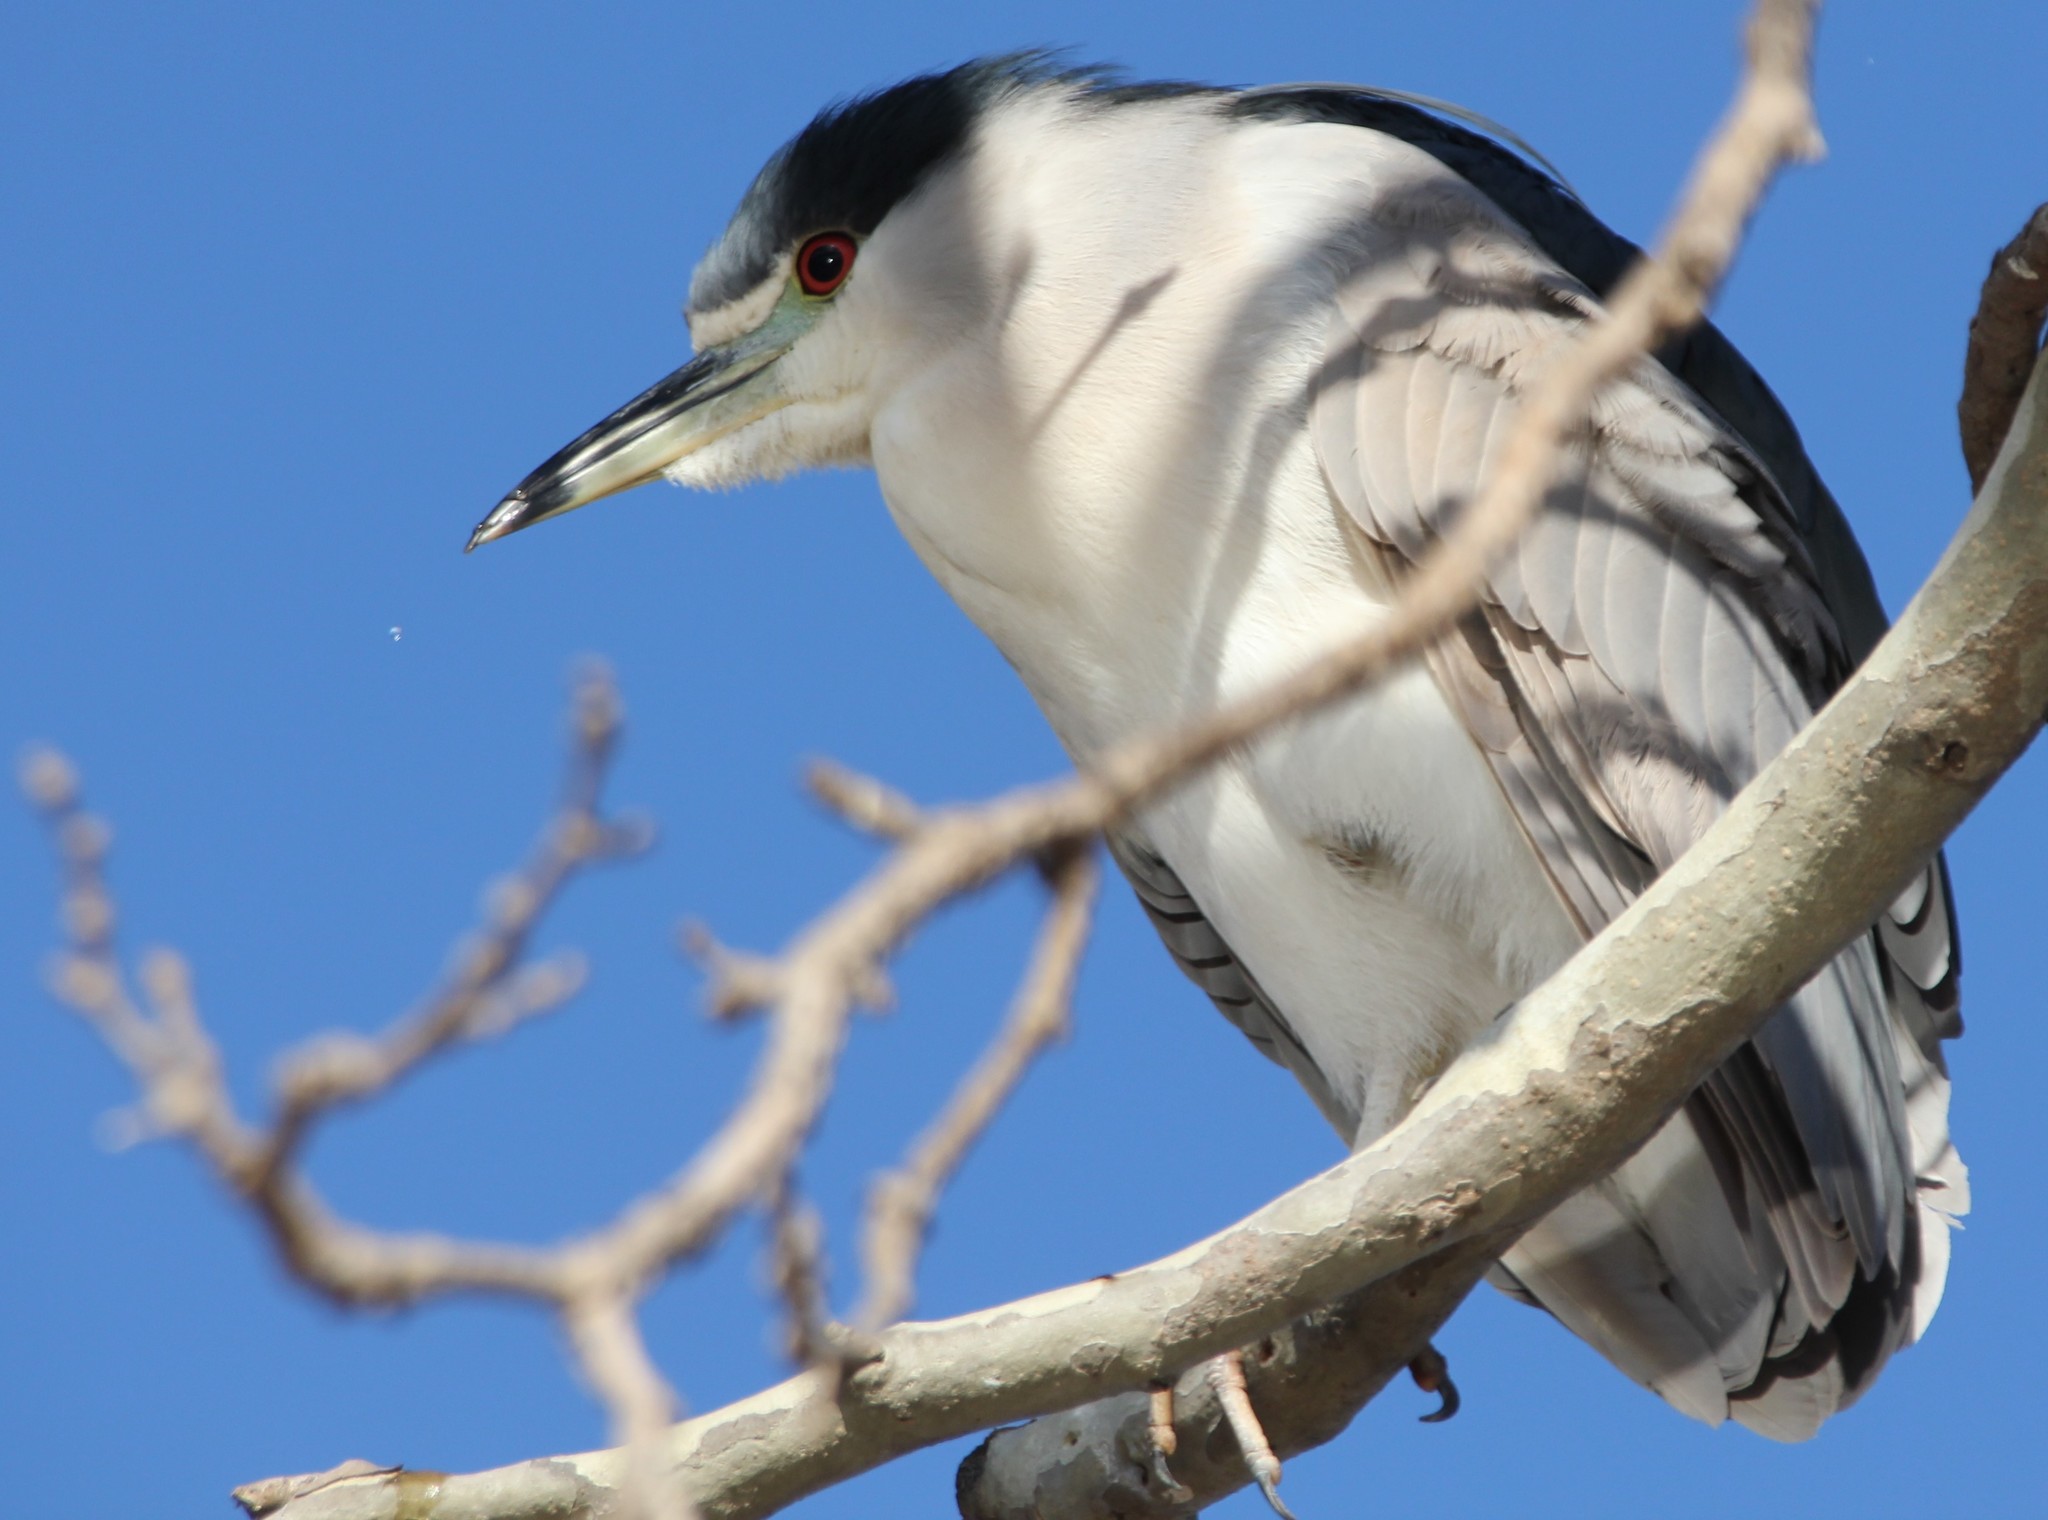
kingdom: Animalia
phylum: Chordata
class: Aves
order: Pelecaniformes
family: Ardeidae
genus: Nycticorax
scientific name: Nycticorax nycticorax
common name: Black-crowned night heron
